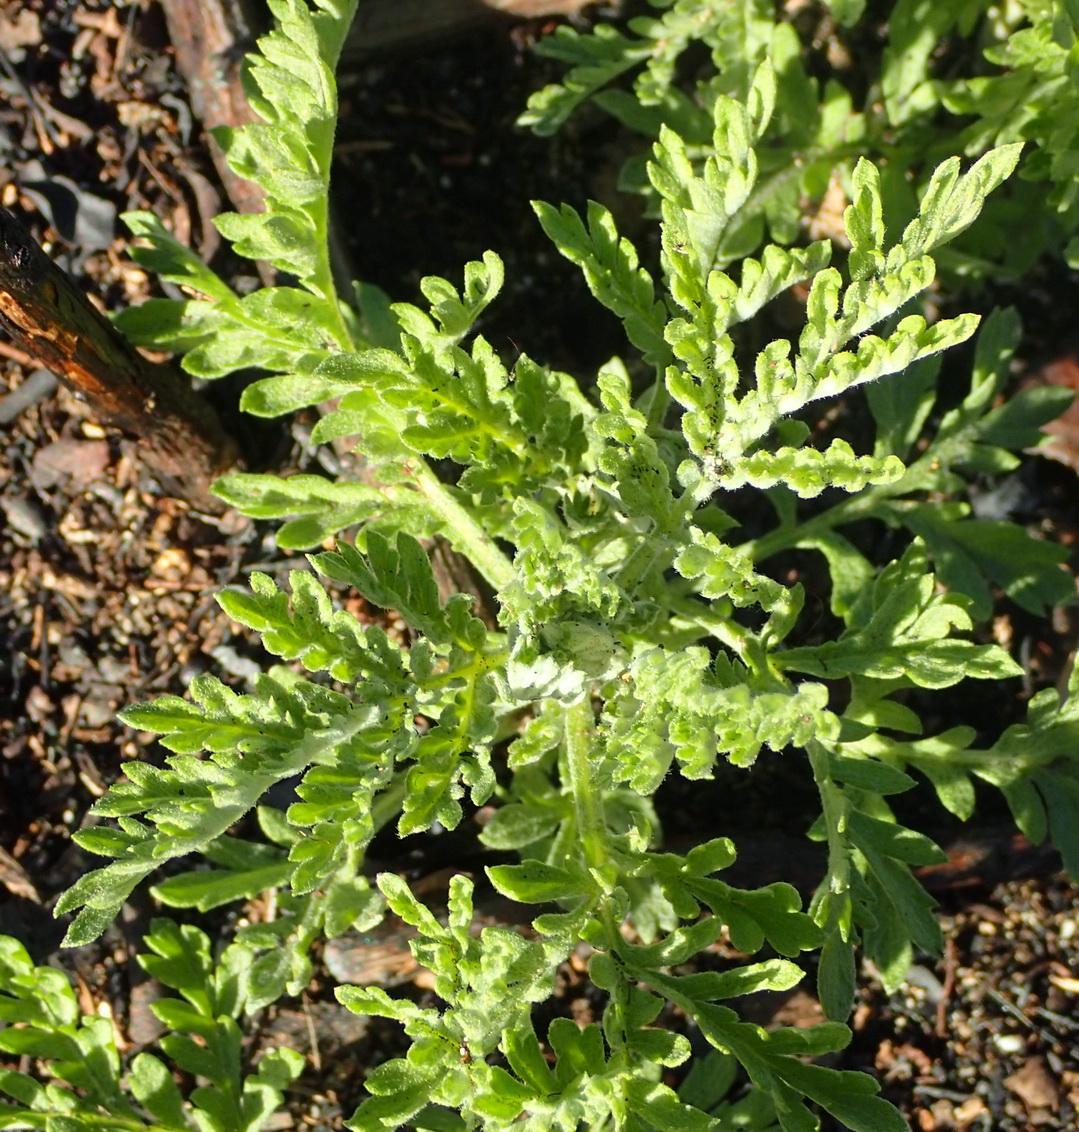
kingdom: Plantae
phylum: Tracheophyta
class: Magnoliopsida
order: Asterales
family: Asteraceae
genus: Artemisia
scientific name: Artemisia afra
